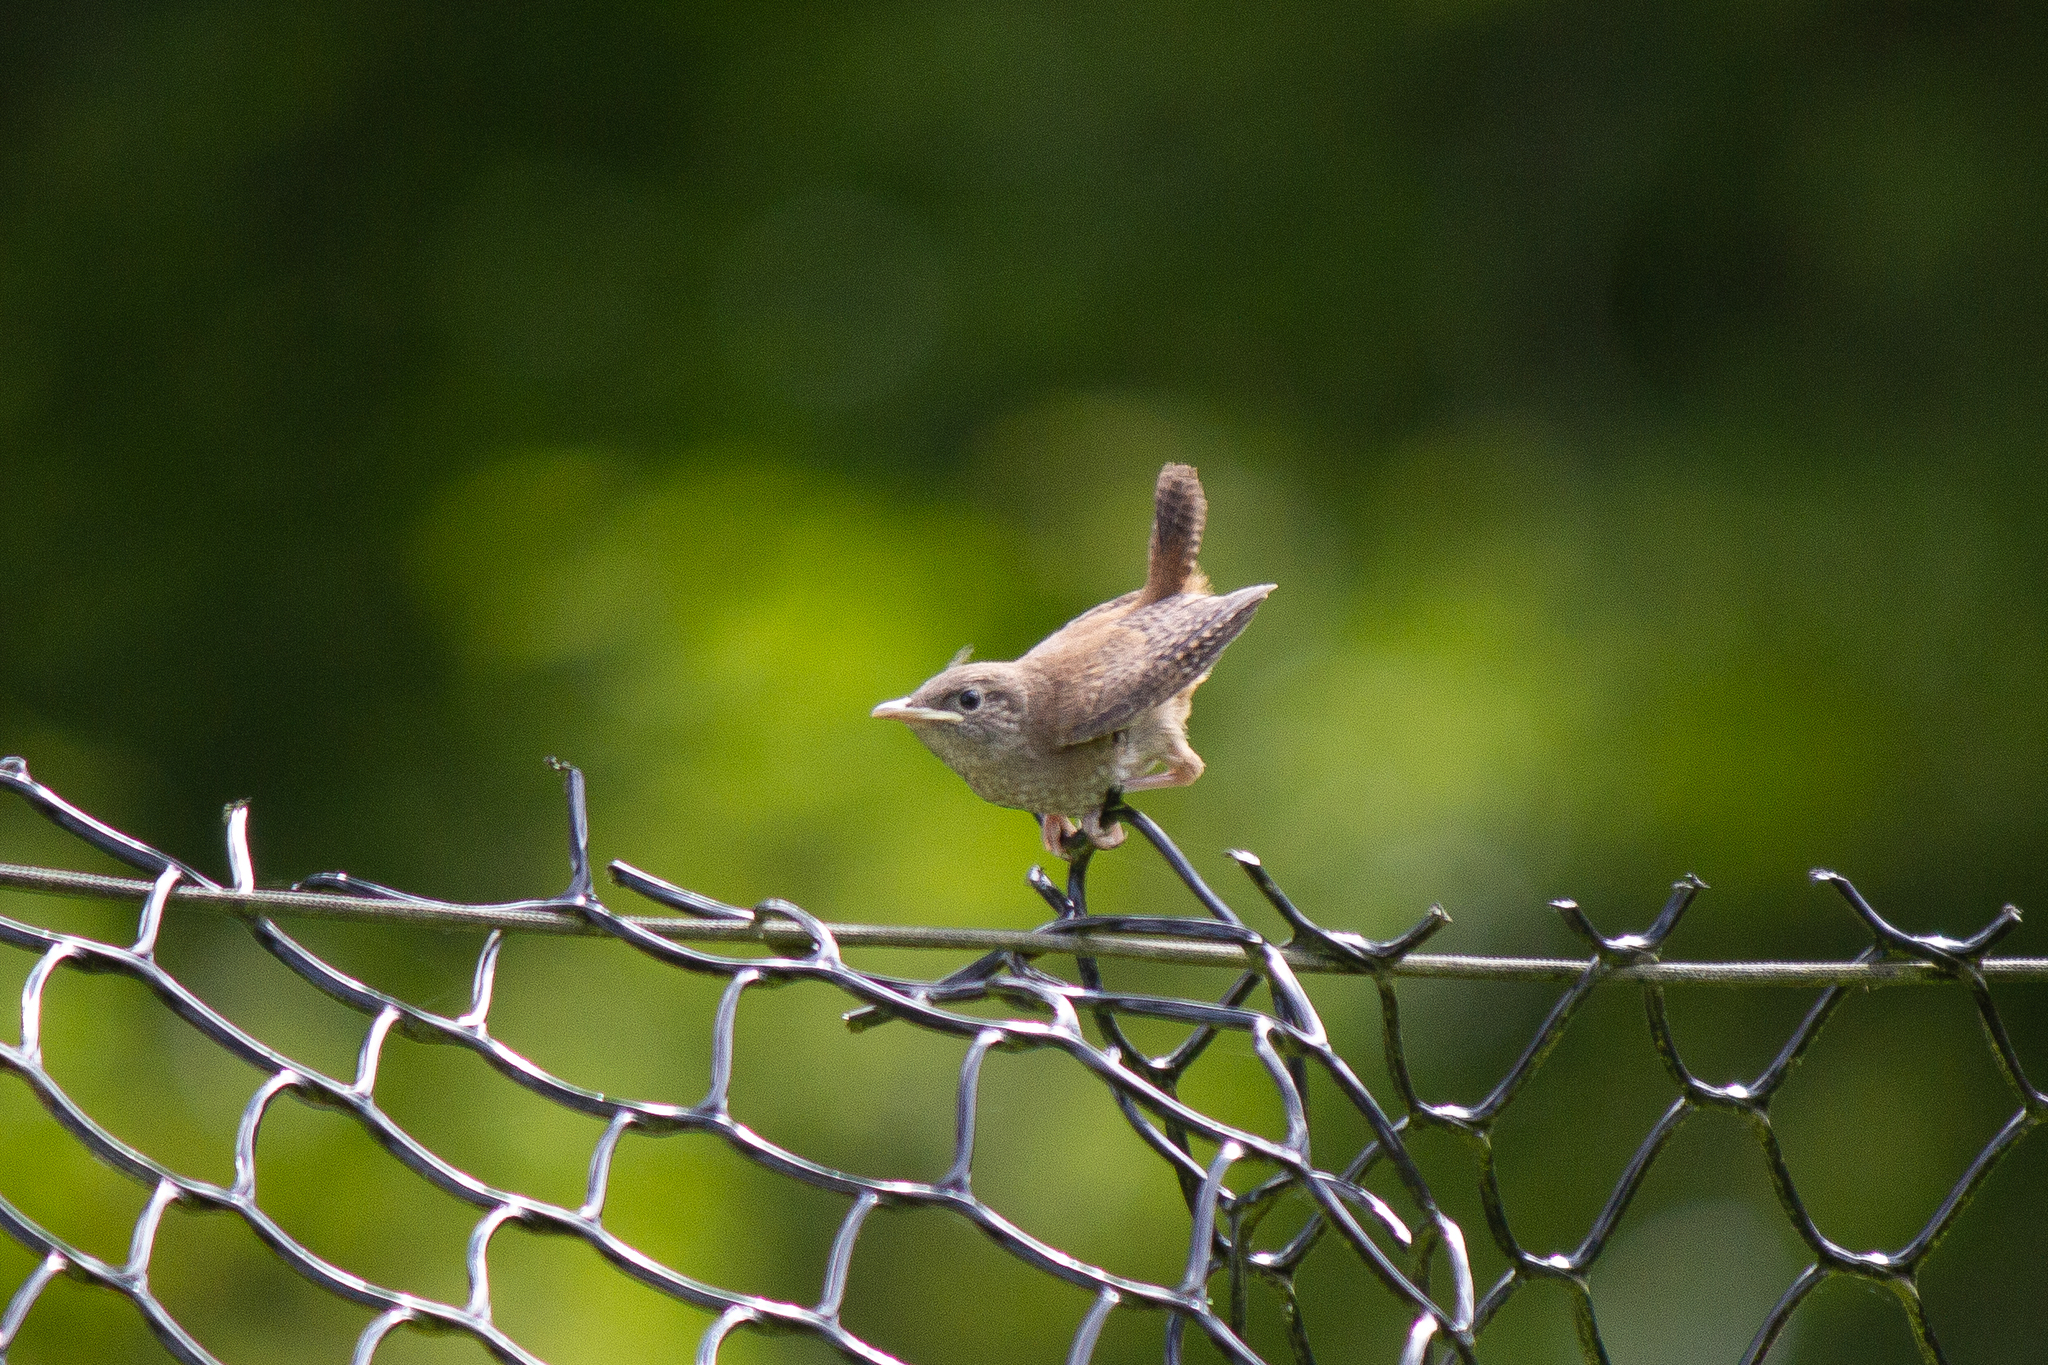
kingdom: Animalia
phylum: Chordata
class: Aves
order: Passeriformes
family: Troglodytidae
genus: Troglodytes
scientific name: Troglodytes aedon
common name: House wren
